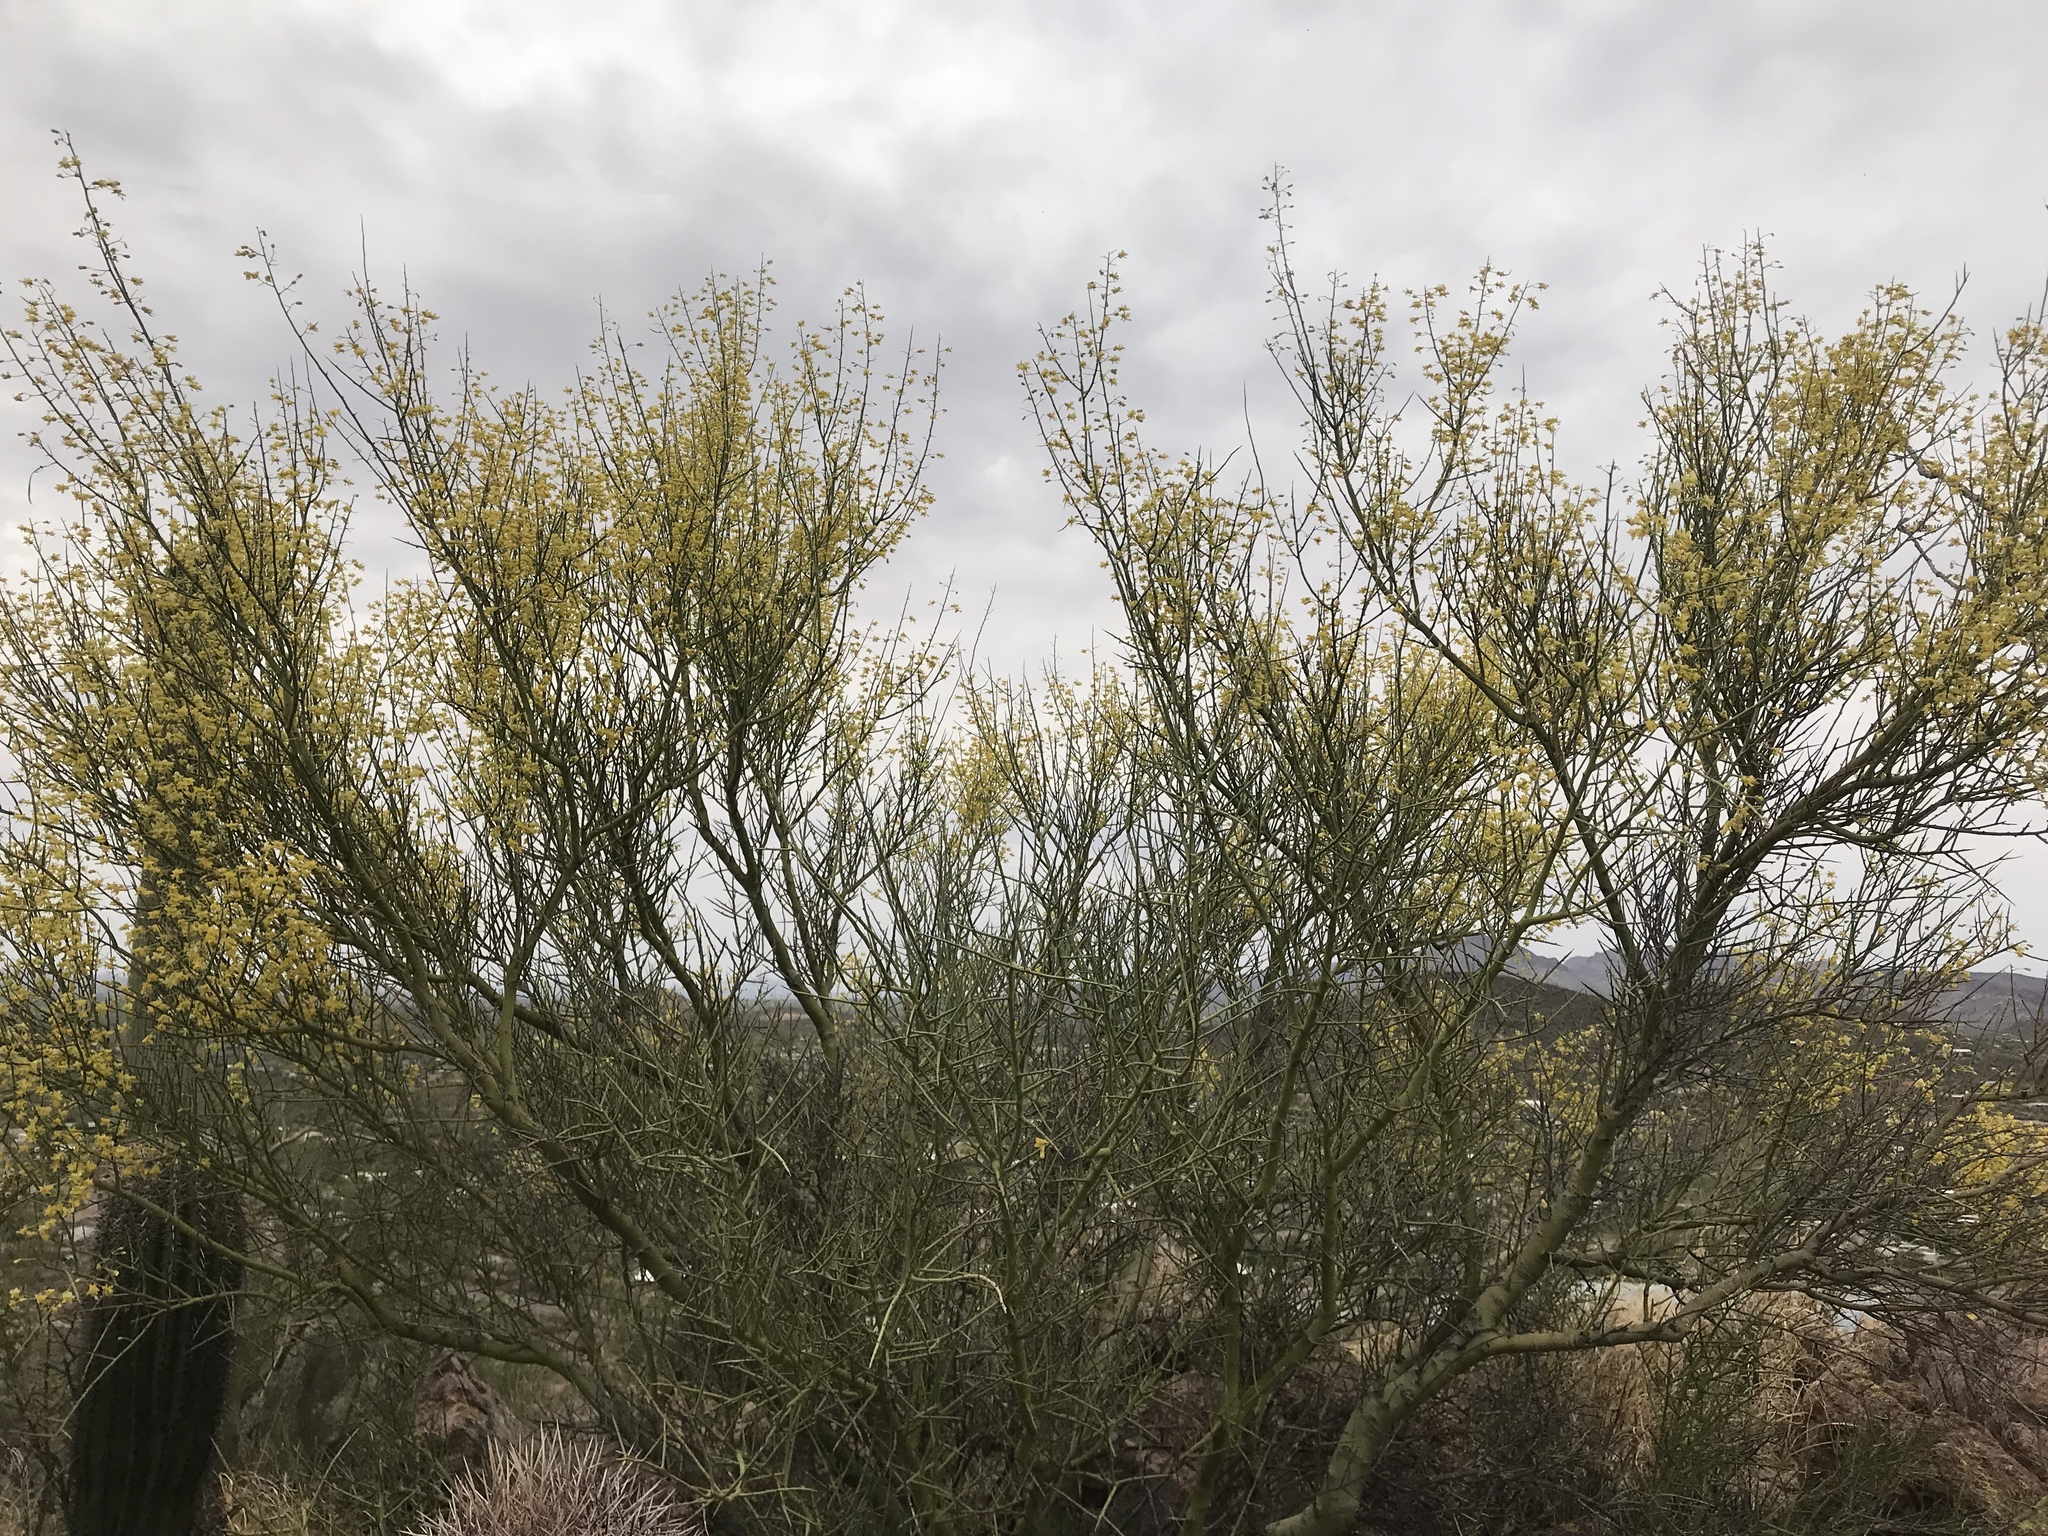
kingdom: Plantae
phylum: Tracheophyta
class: Magnoliopsida
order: Fabales
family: Fabaceae
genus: Parkinsonia
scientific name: Parkinsonia microphylla
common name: Yellow paloverde
